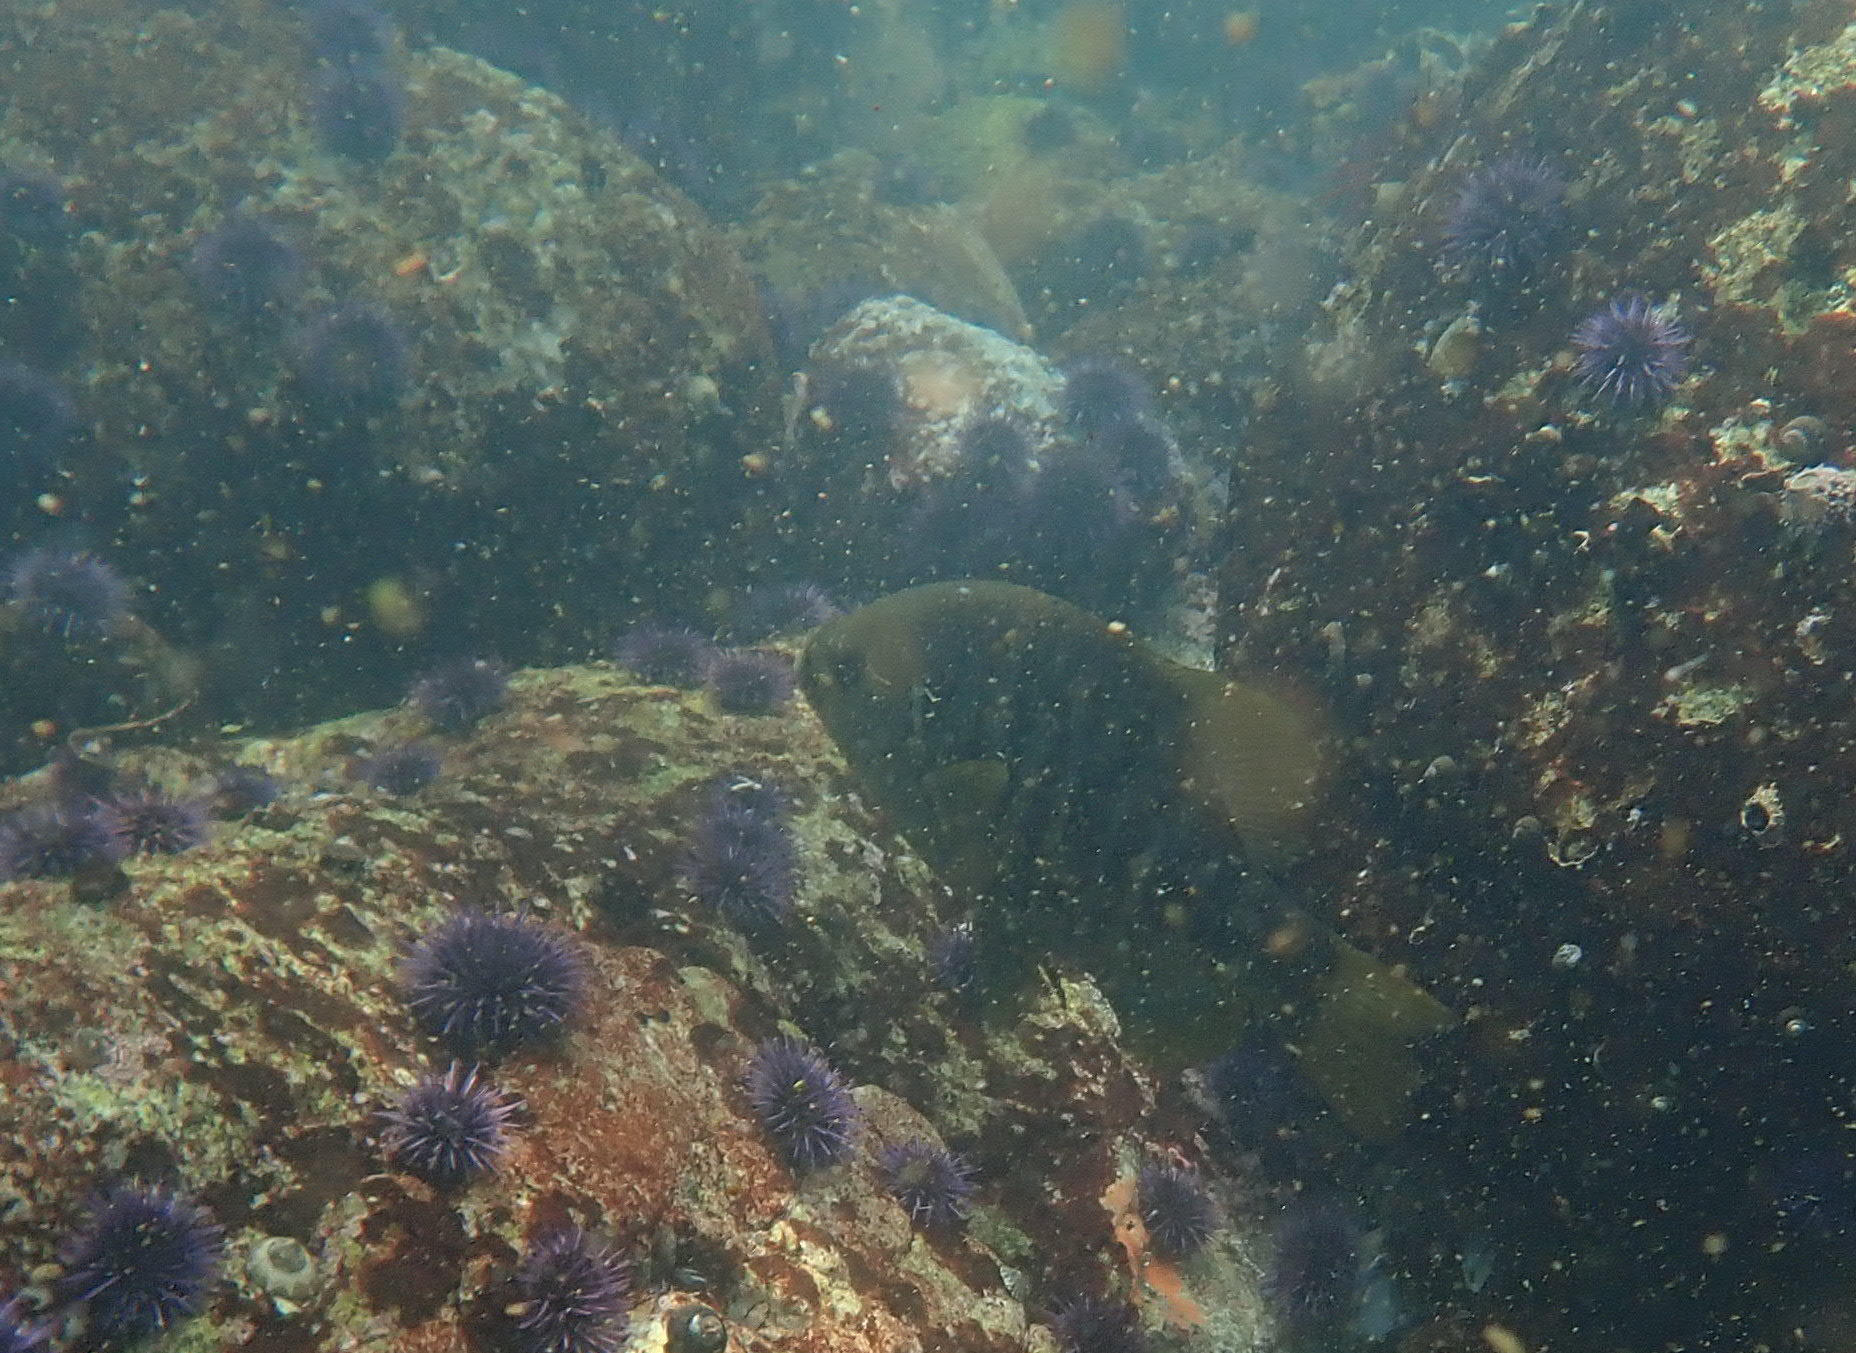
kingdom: Animalia
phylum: Chordata
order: Perciformes
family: Embiotocidae
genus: Embiotoca
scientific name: Embiotoca jacksoni
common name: Black perch
